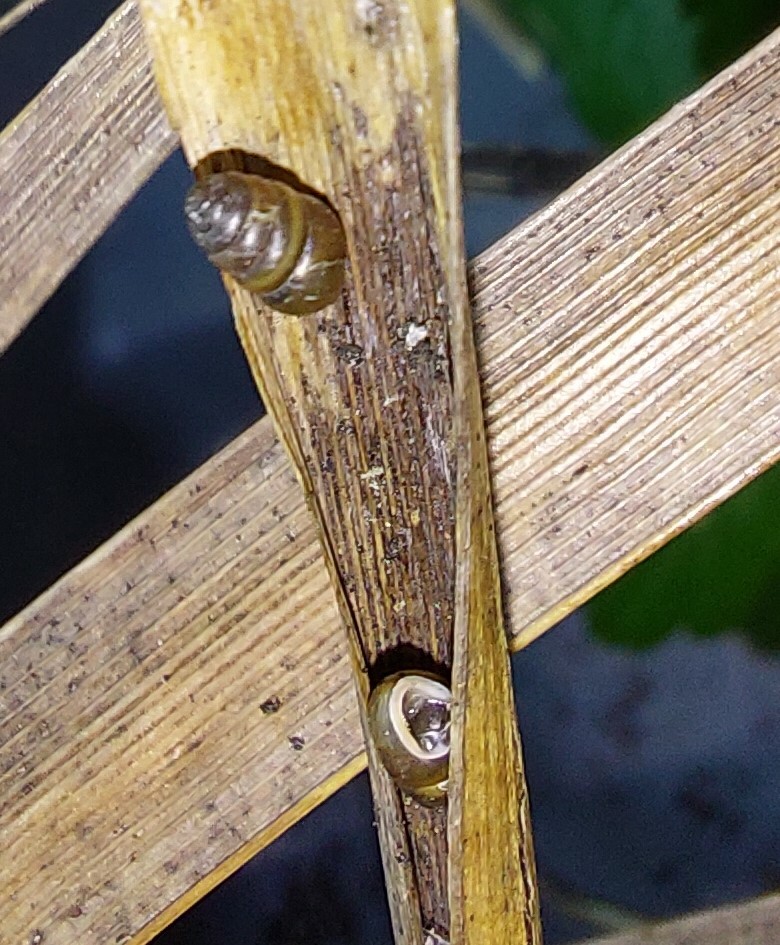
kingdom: Animalia
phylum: Mollusca
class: Gastropoda
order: Stylommatophora
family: Lauriidae
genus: Lauria
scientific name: Lauria cylindracea
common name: Common chrysalis snail
